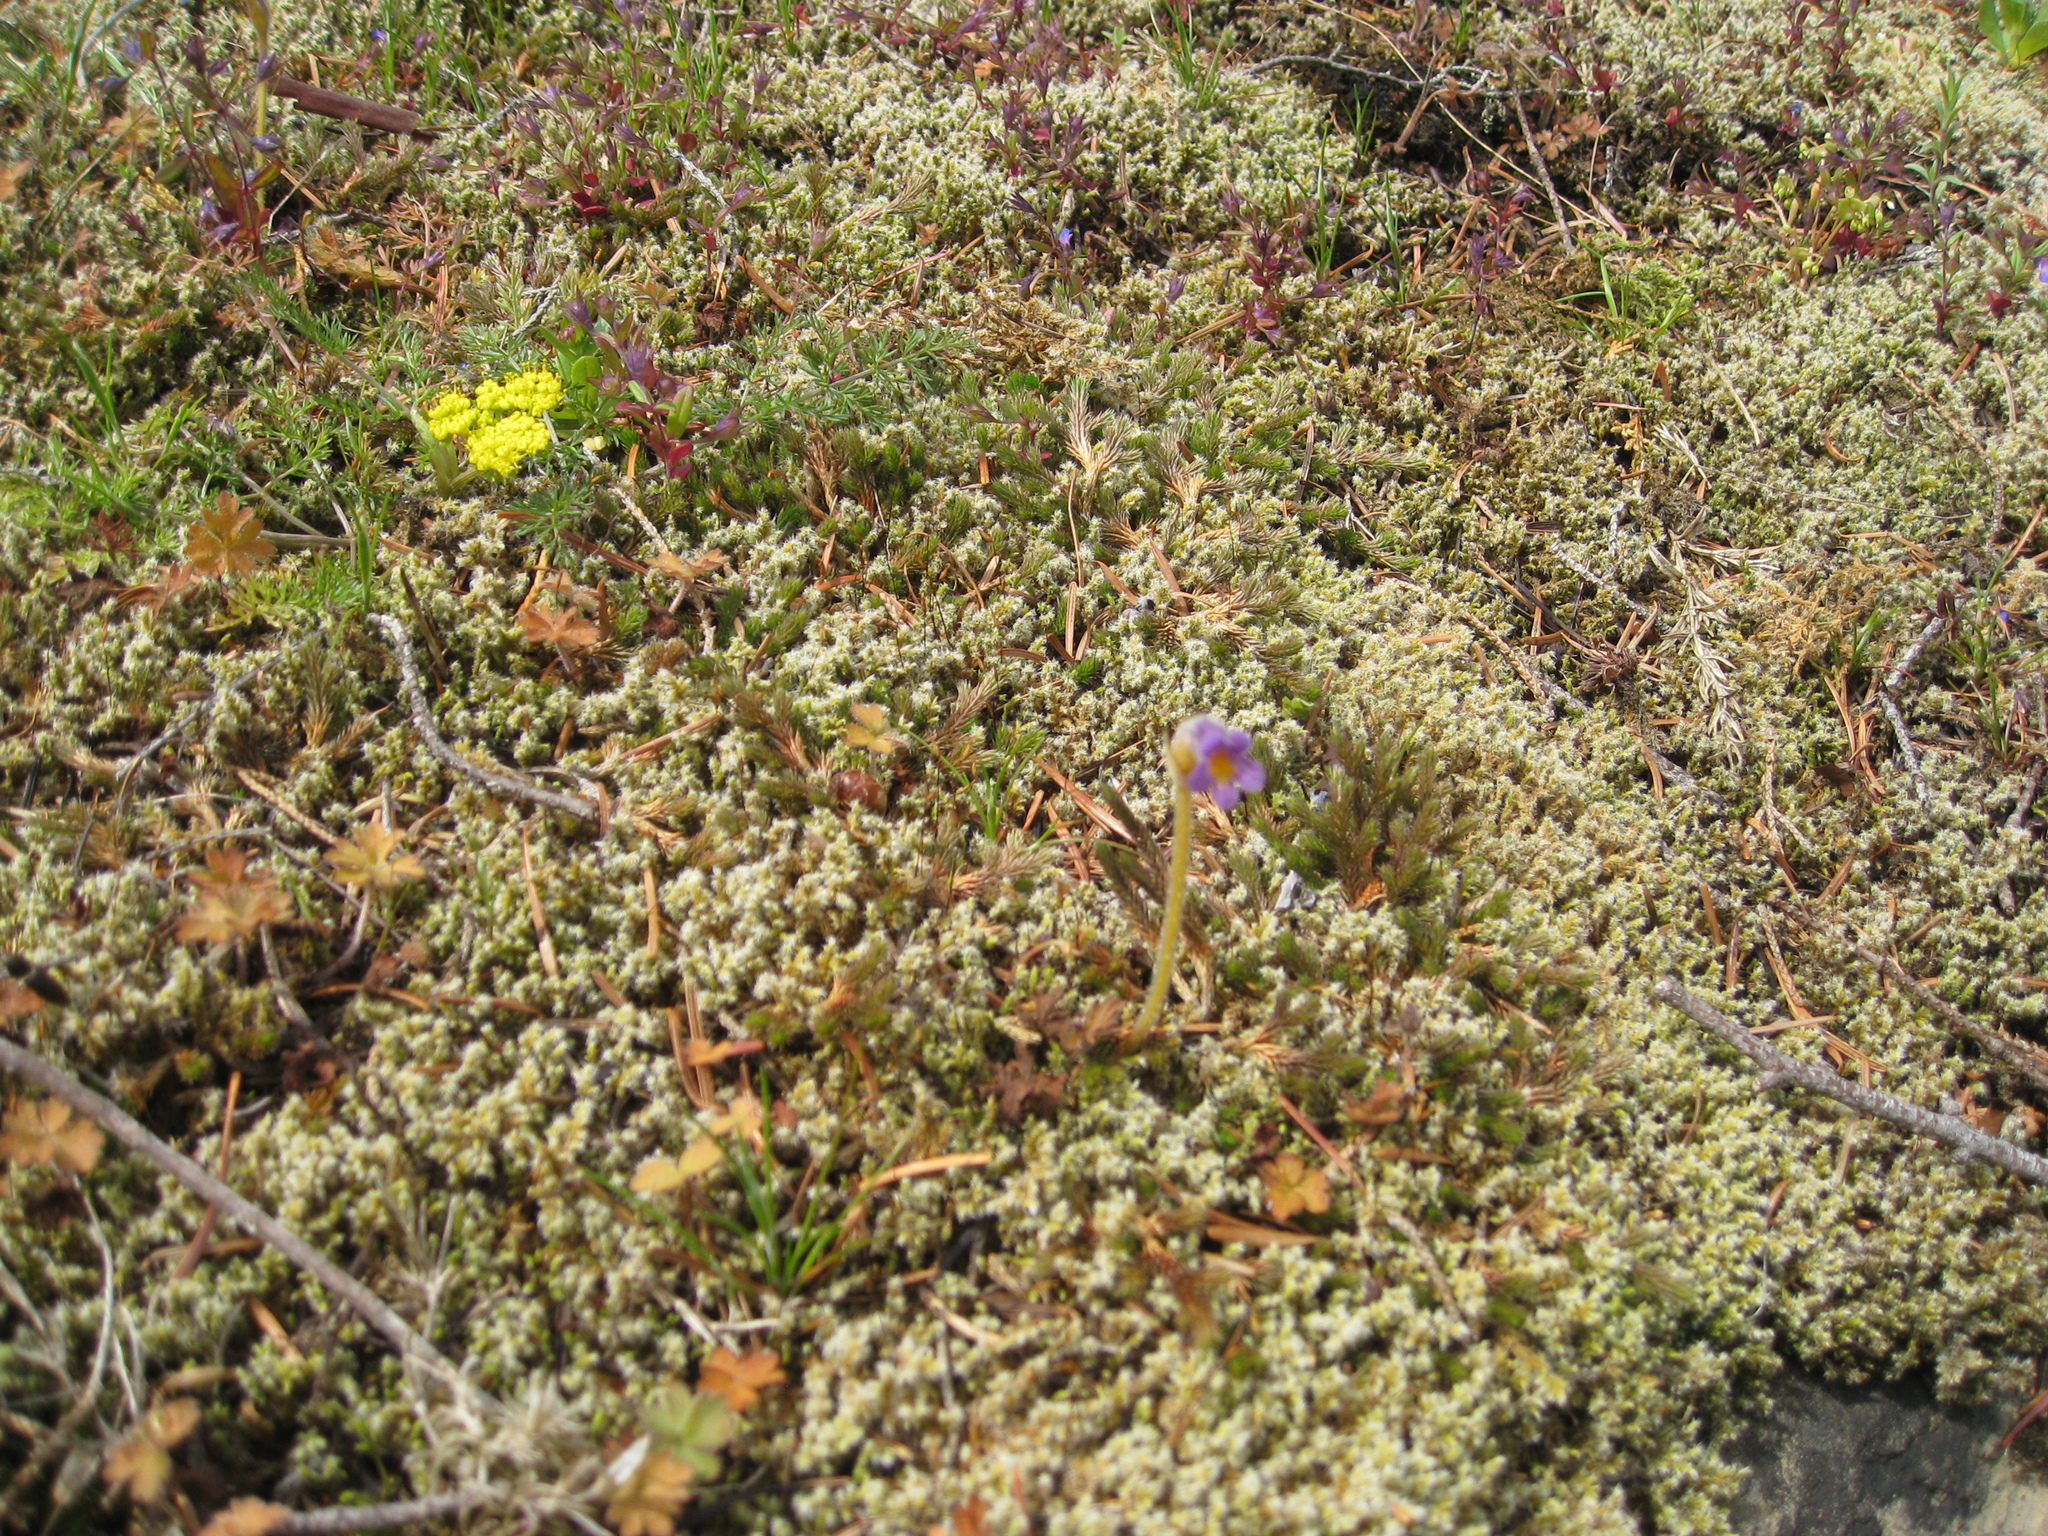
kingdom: Plantae
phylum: Tracheophyta
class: Magnoliopsida
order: Lamiales
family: Orobanchaceae
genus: Aphyllon
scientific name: Aphyllon uniflorum
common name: One-flowered broomrape
